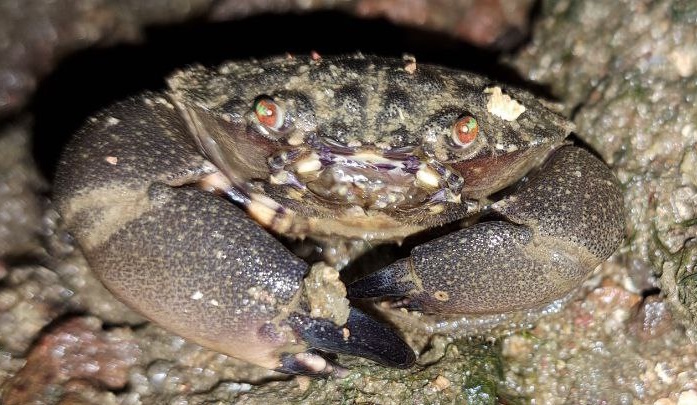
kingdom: Animalia
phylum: Arthropoda
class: Malacostraca
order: Decapoda
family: Menippidae
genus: Myomenippe
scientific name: Myomenippe hardwickii
